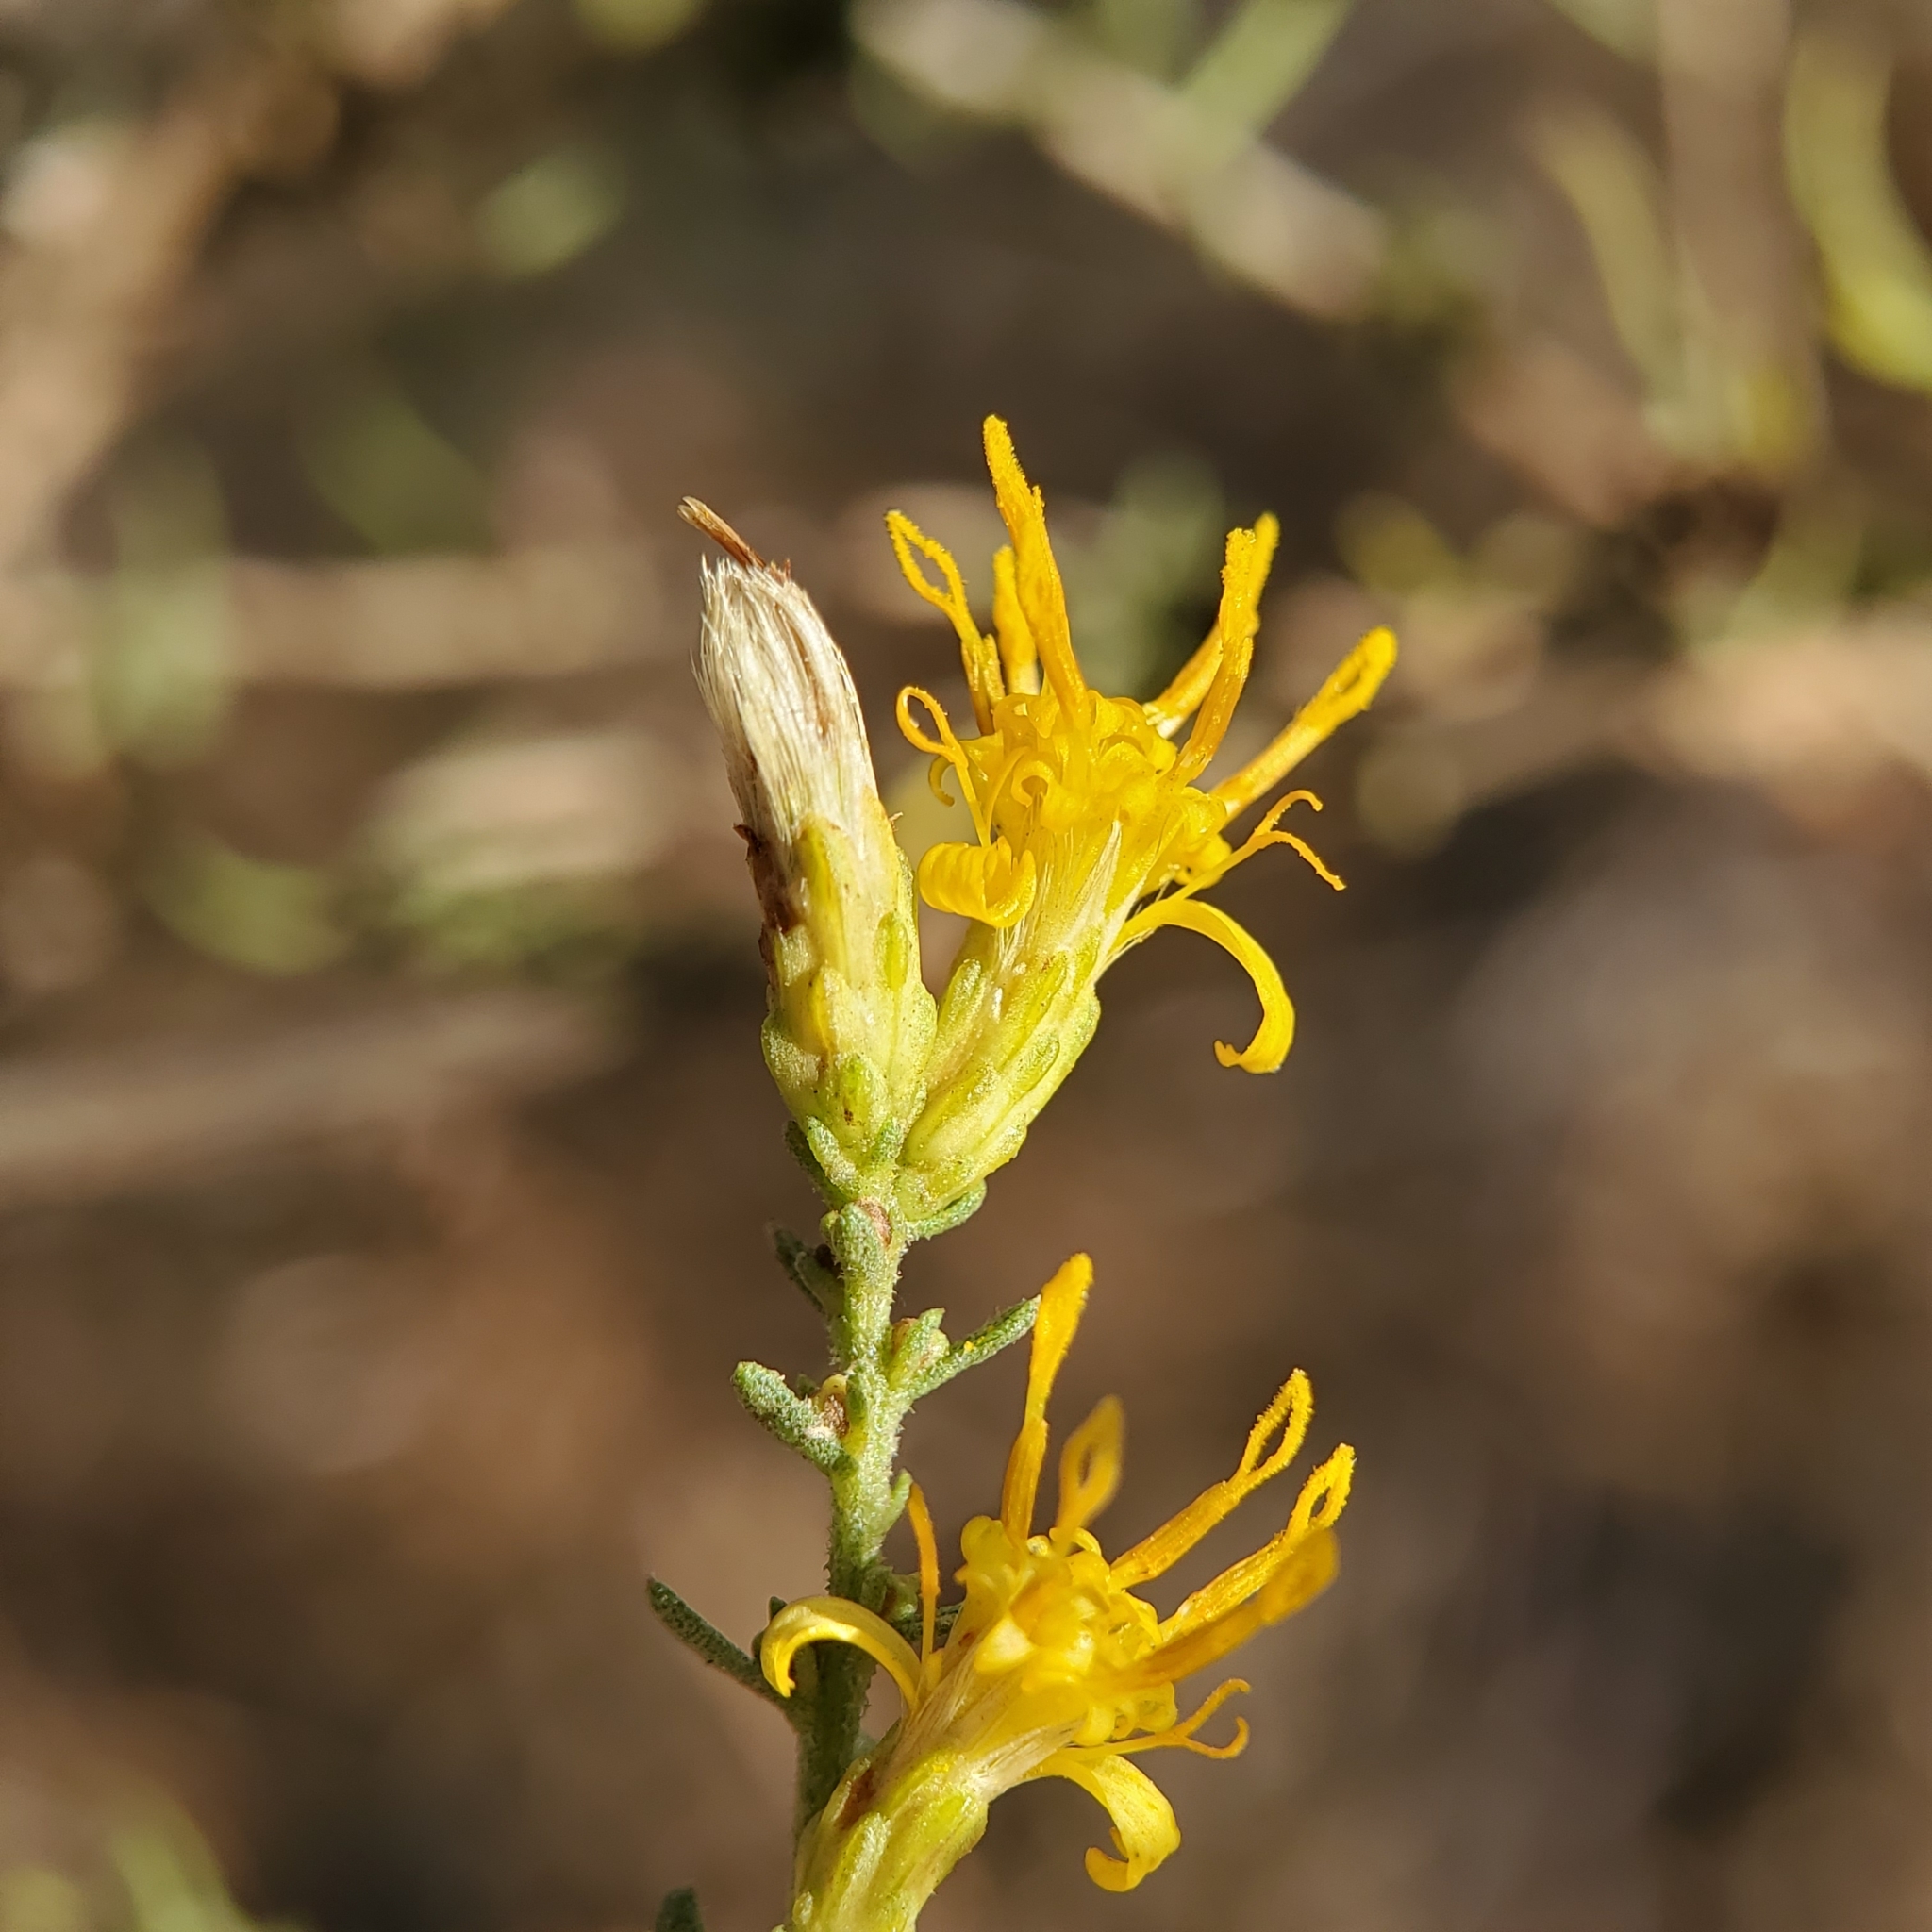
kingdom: Plantae
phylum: Tracheophyta
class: Magnoliopsida
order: Asterales
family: Asteraceae
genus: Ericameria
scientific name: Ericameria palmeri
